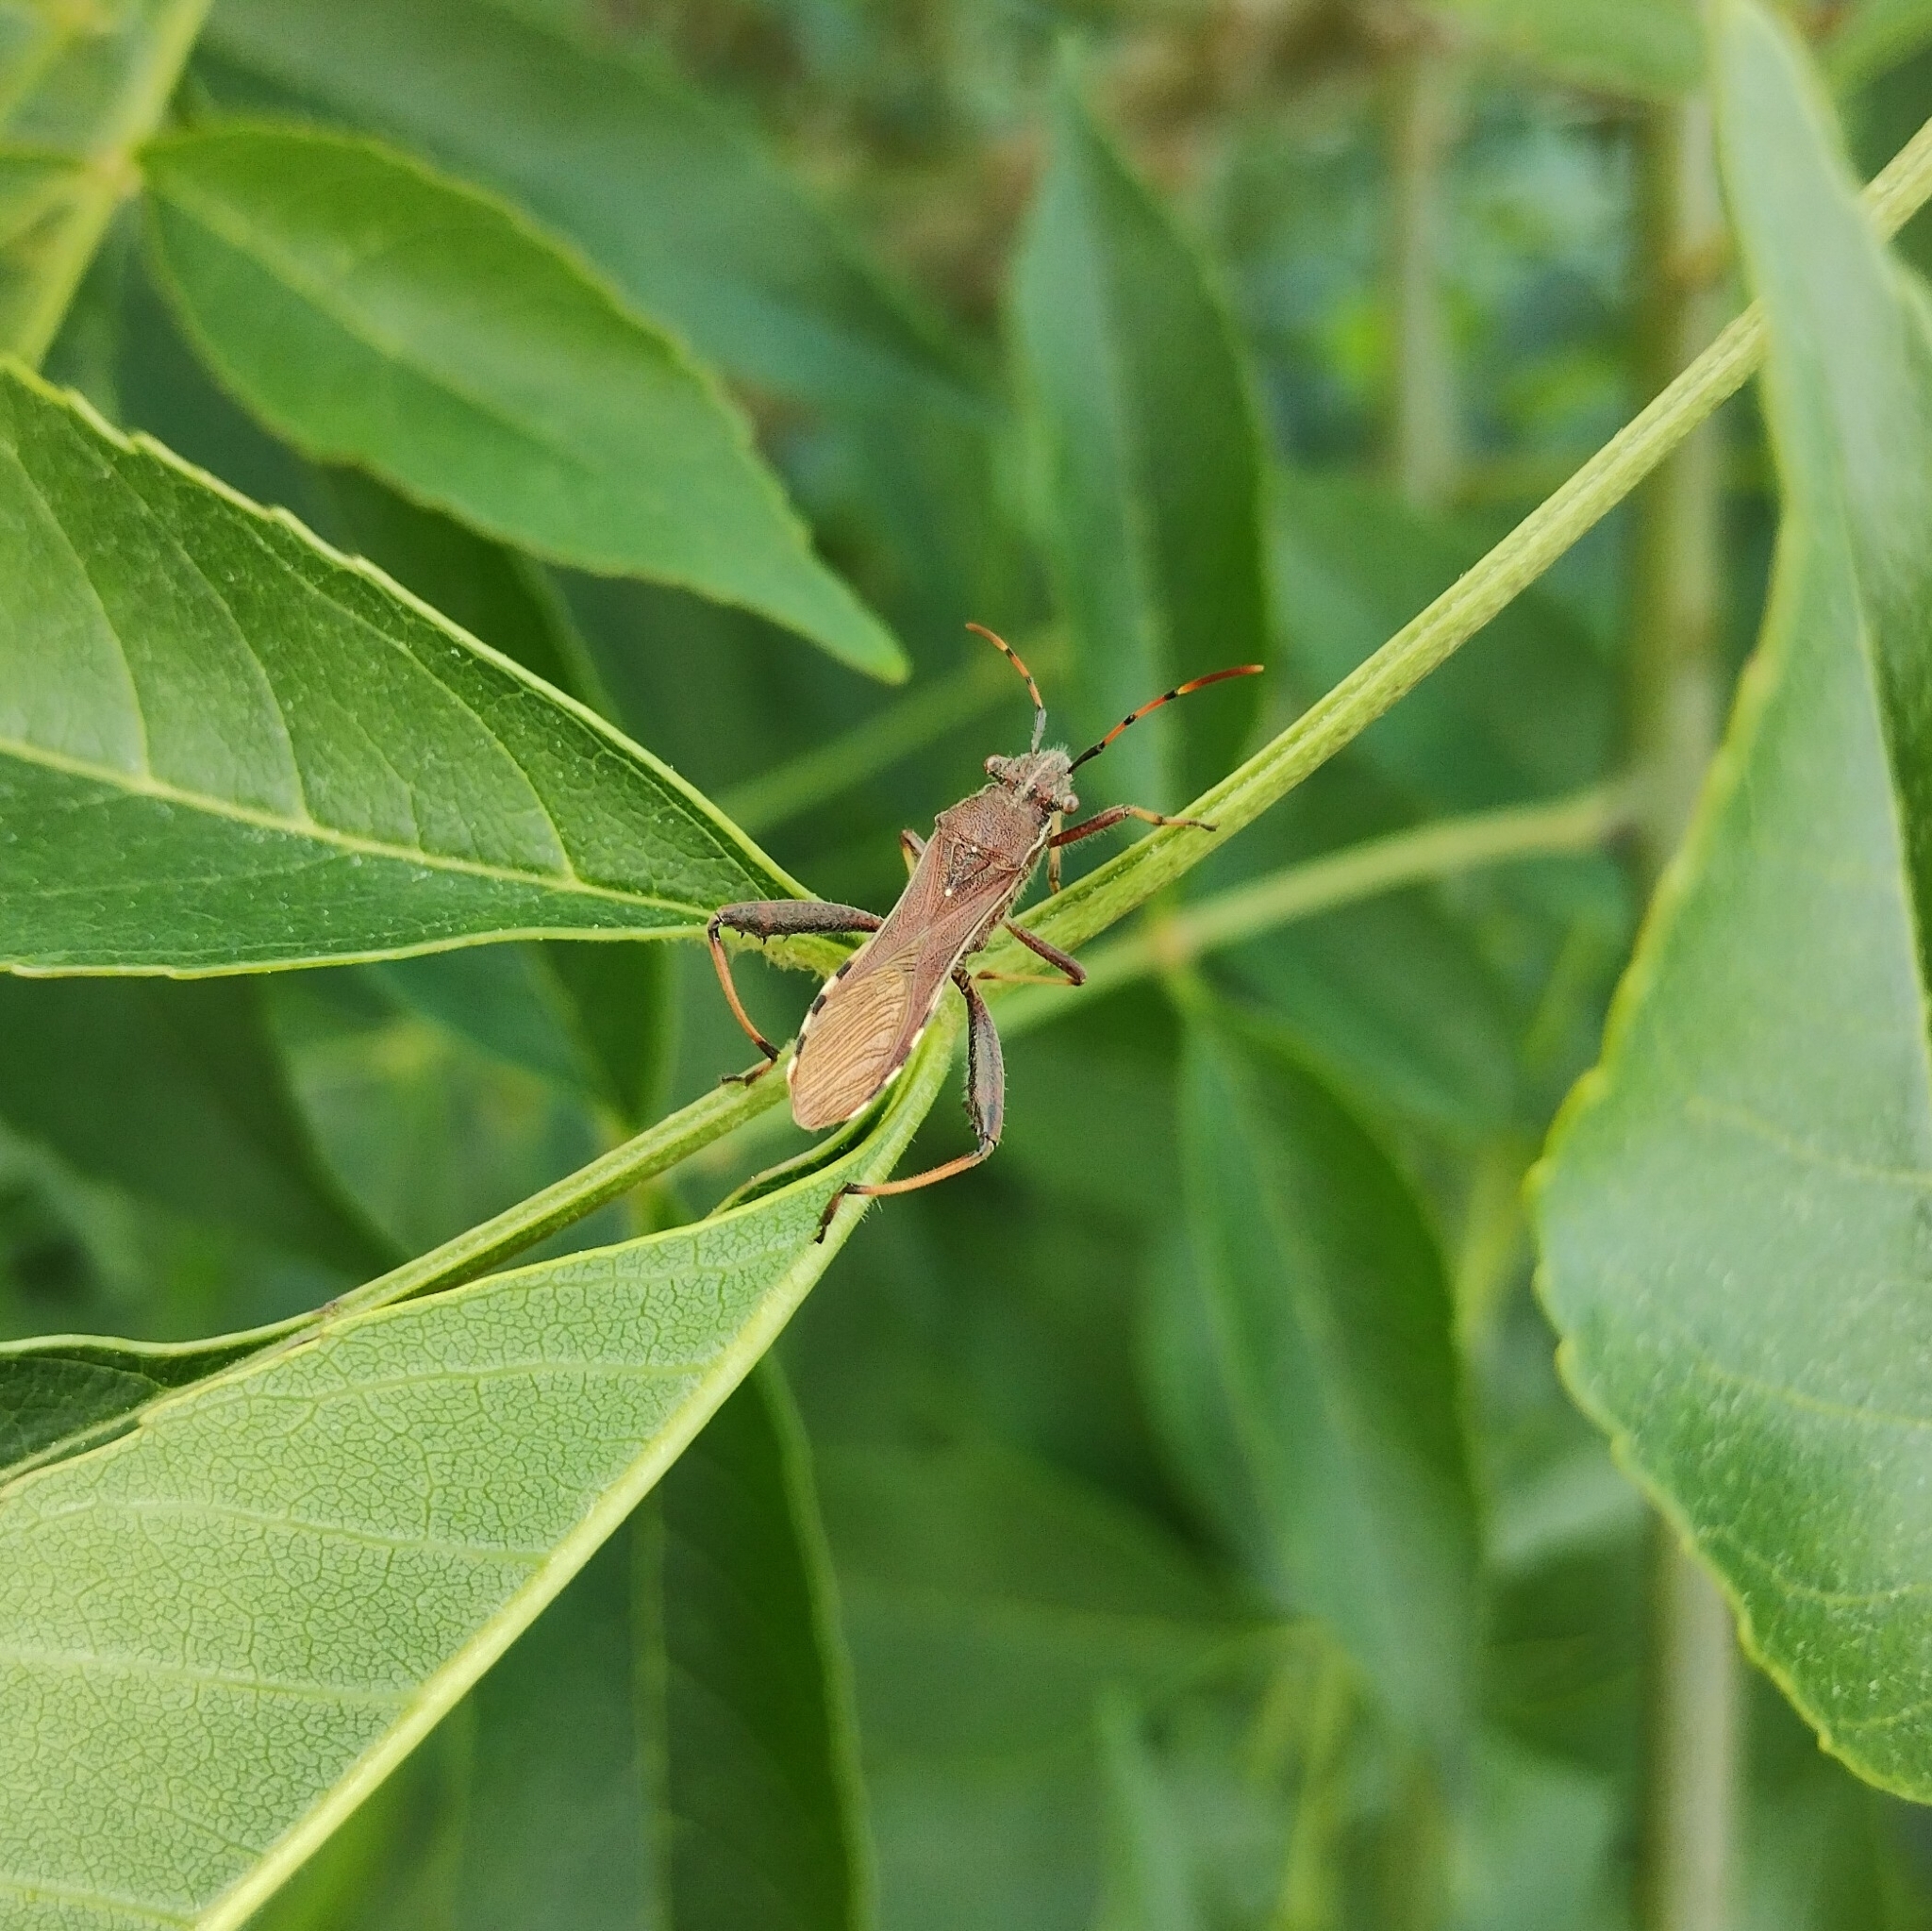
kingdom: Animalia
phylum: Arthropoda
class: Insecta
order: Hemiptera
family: Alydidae
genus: Camptopus
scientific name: Camptopus lateralis
